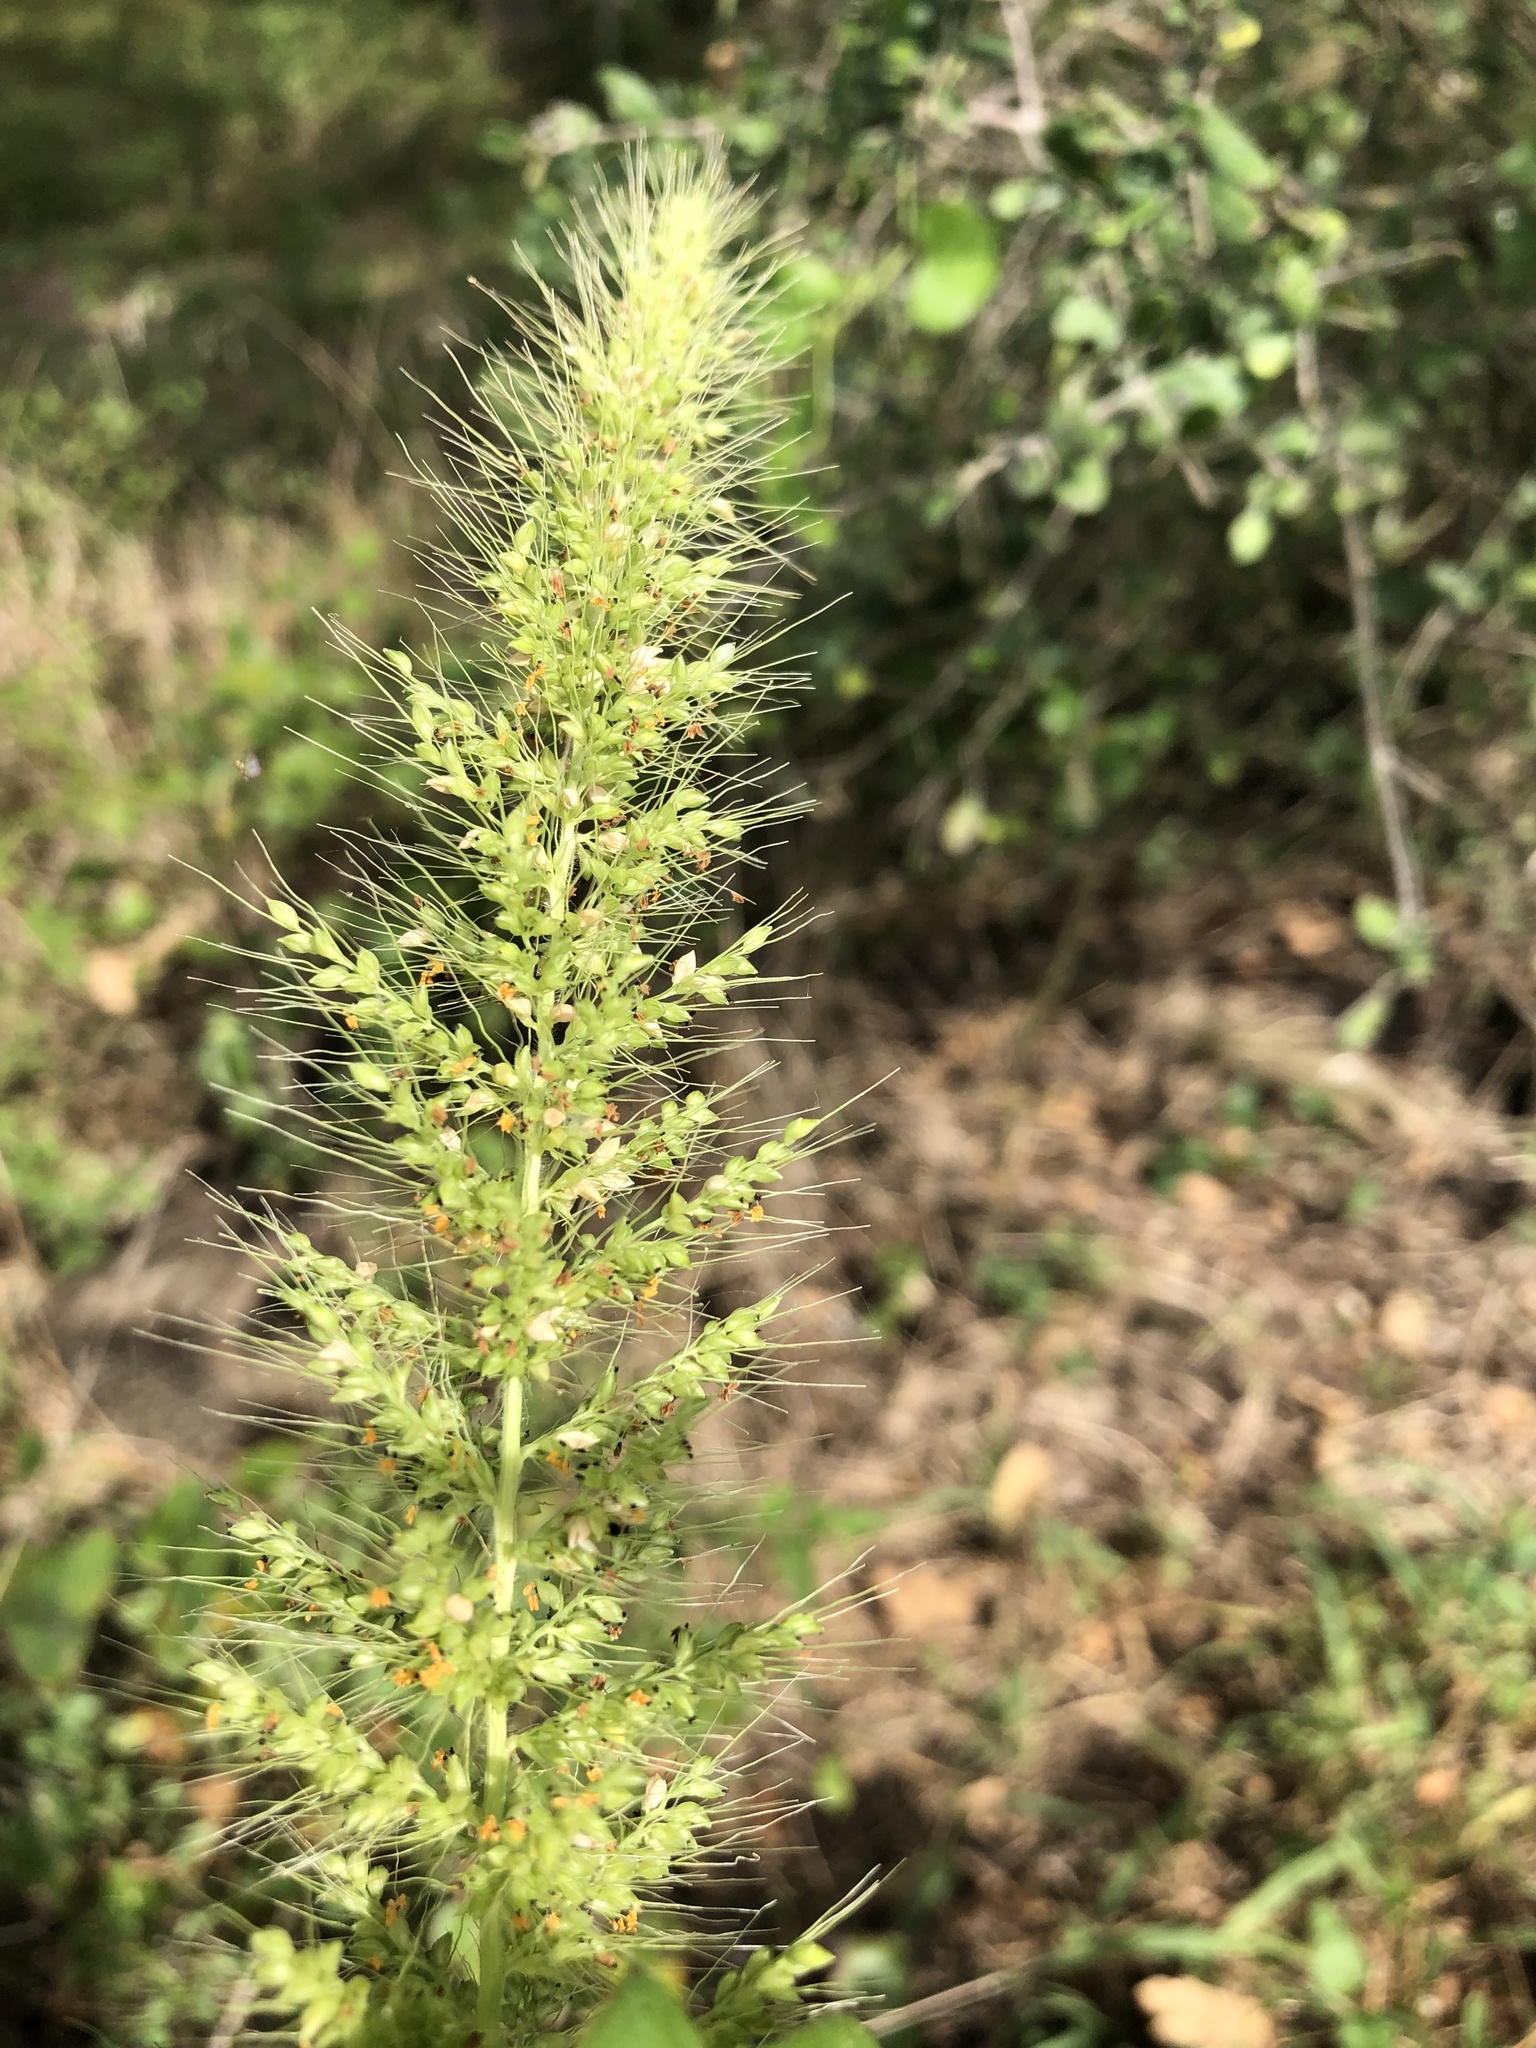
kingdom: Plantae
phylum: Tracheophyta
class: Liliopsida
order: Poales
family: Poaceae
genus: Setaria
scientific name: Setaria scheelei
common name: Southwestern bristle grass
